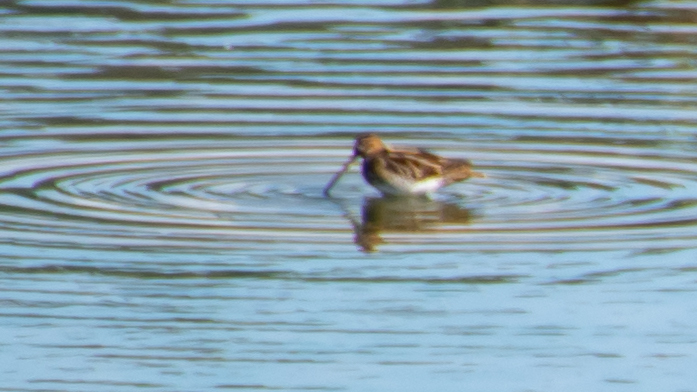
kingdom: Animalia
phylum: Chordata
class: Aves
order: Charadriiformes
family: Scolopacidae
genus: Gallinago
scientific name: Gallinago gallinago
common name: Common snipe
